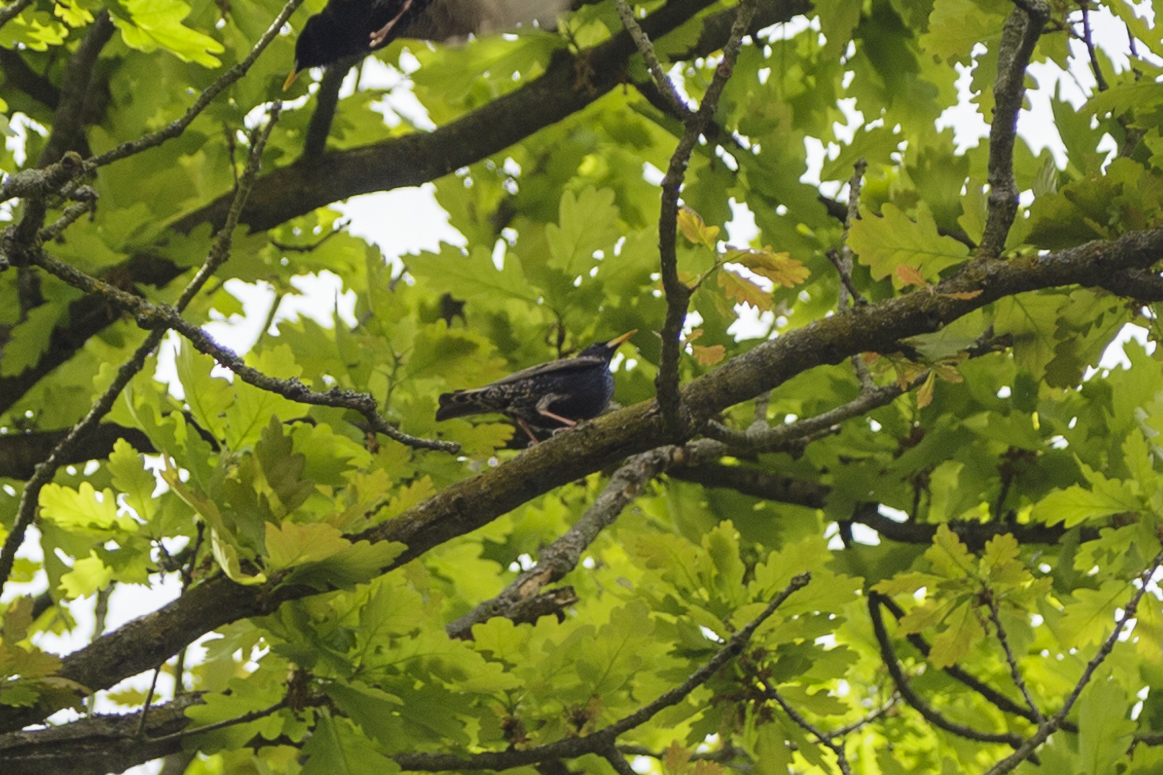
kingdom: Animalia
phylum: Chordata
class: Aves
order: Passeriformes
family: Sturnidae
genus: Sturnus
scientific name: Sturnus vulgaris
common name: Common starling
